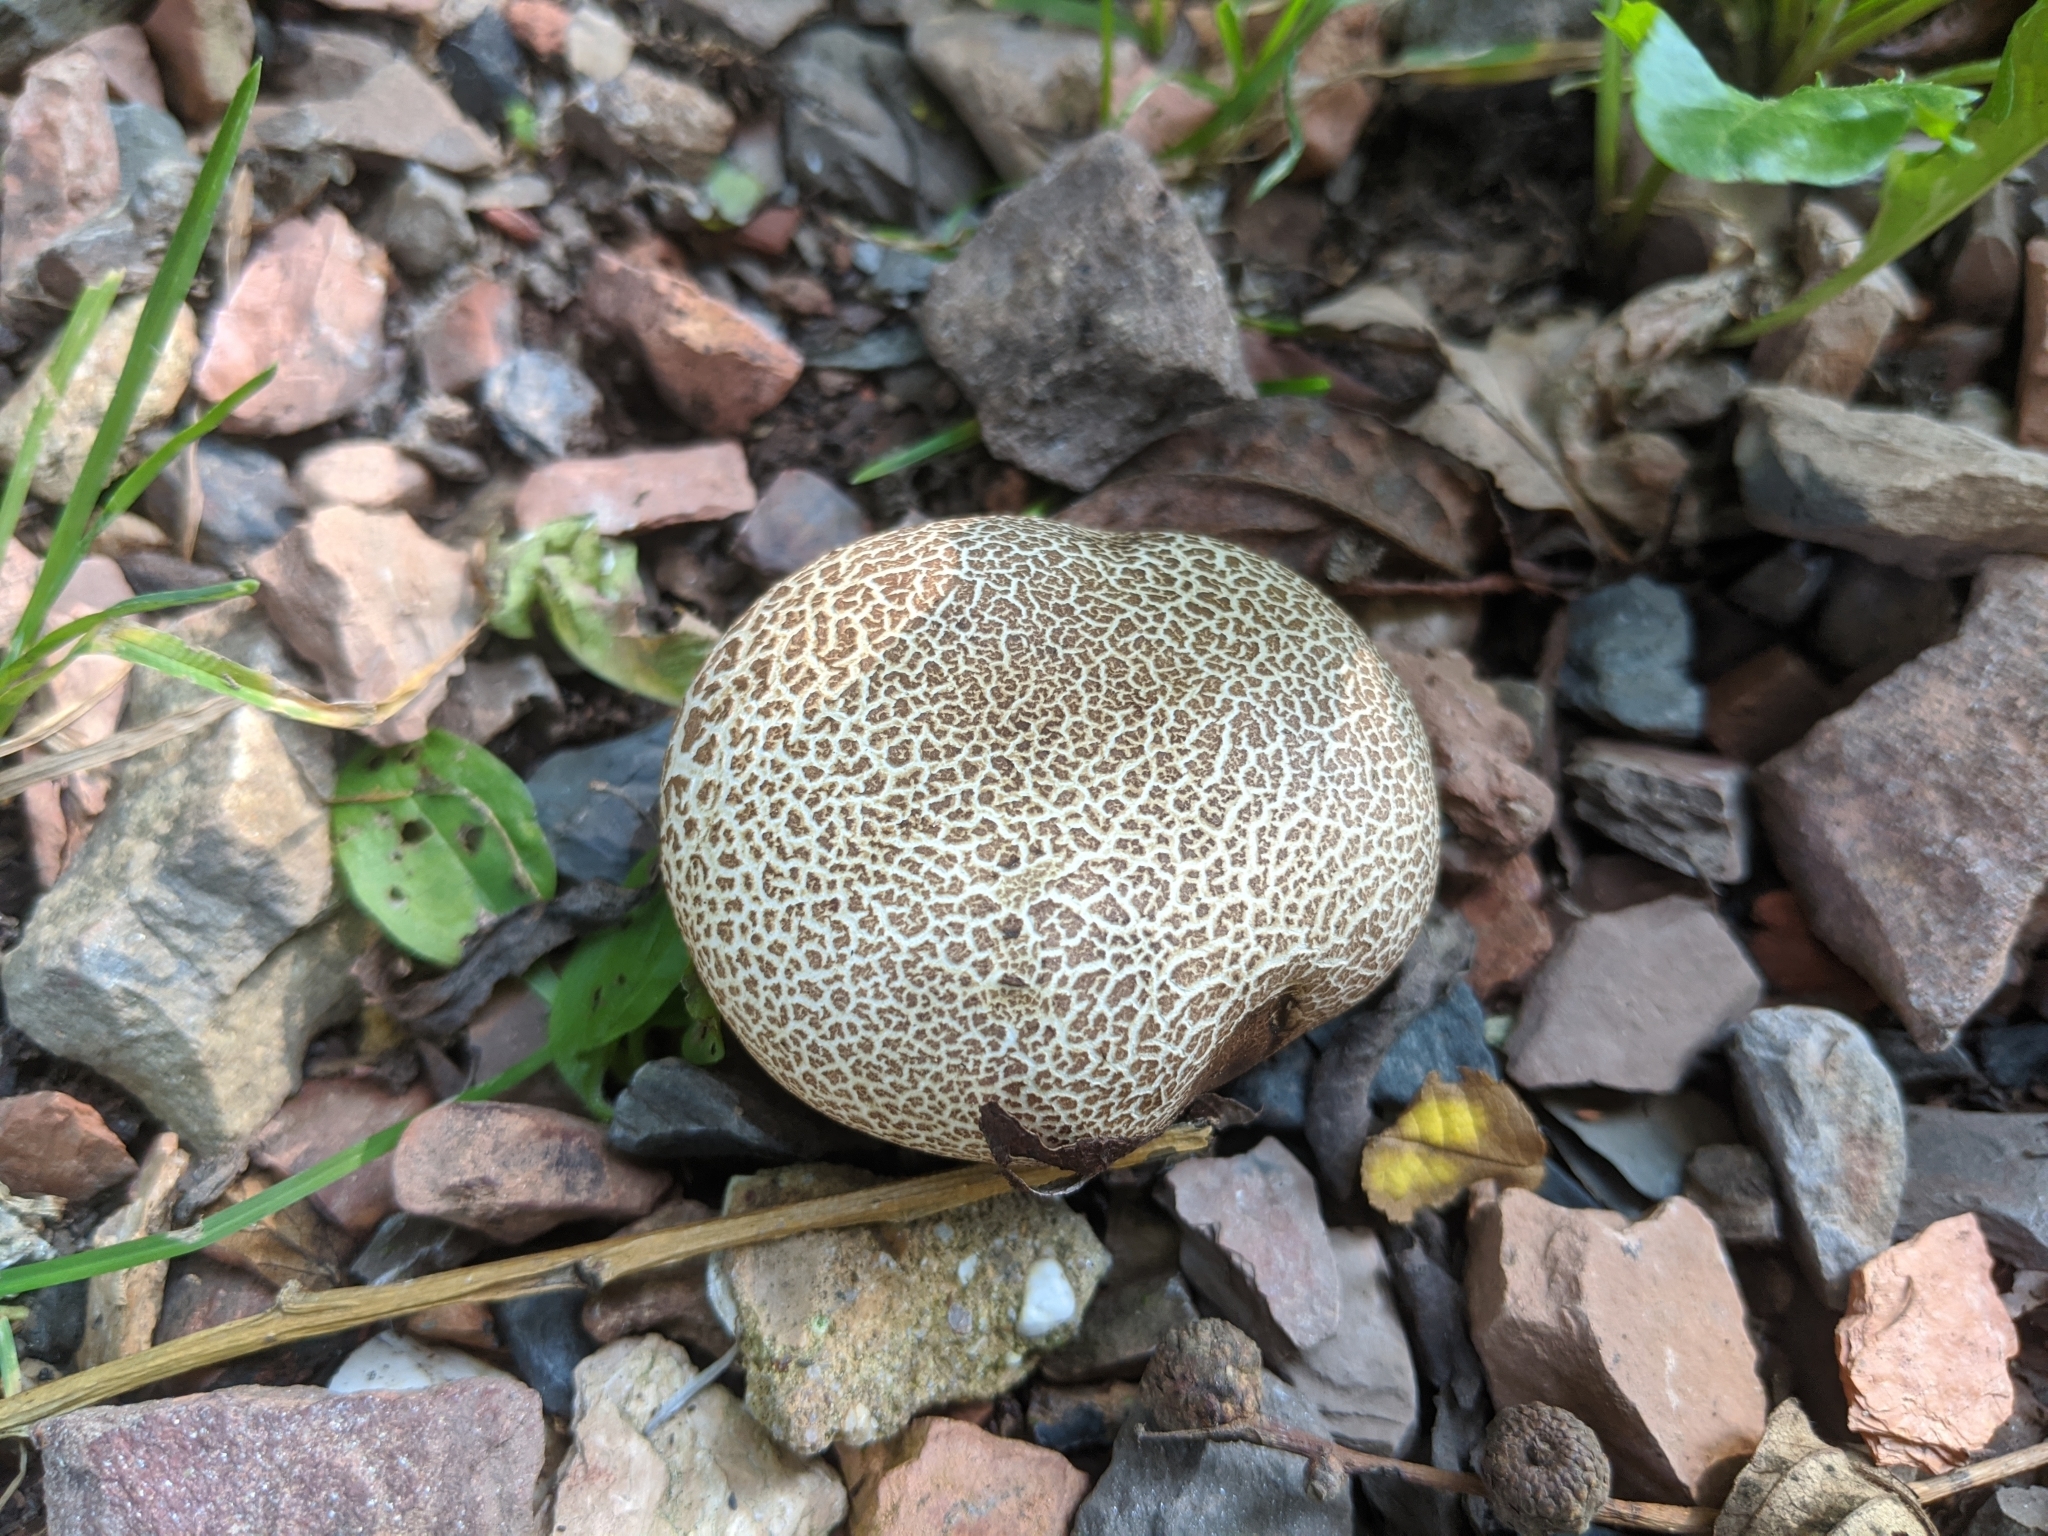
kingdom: Fungi
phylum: Basidiomycota
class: Agaricomycetes
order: Boletales
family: Sclerodermataceae
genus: Scleroderma
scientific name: Scleroderma citrinum
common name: Common earthball
